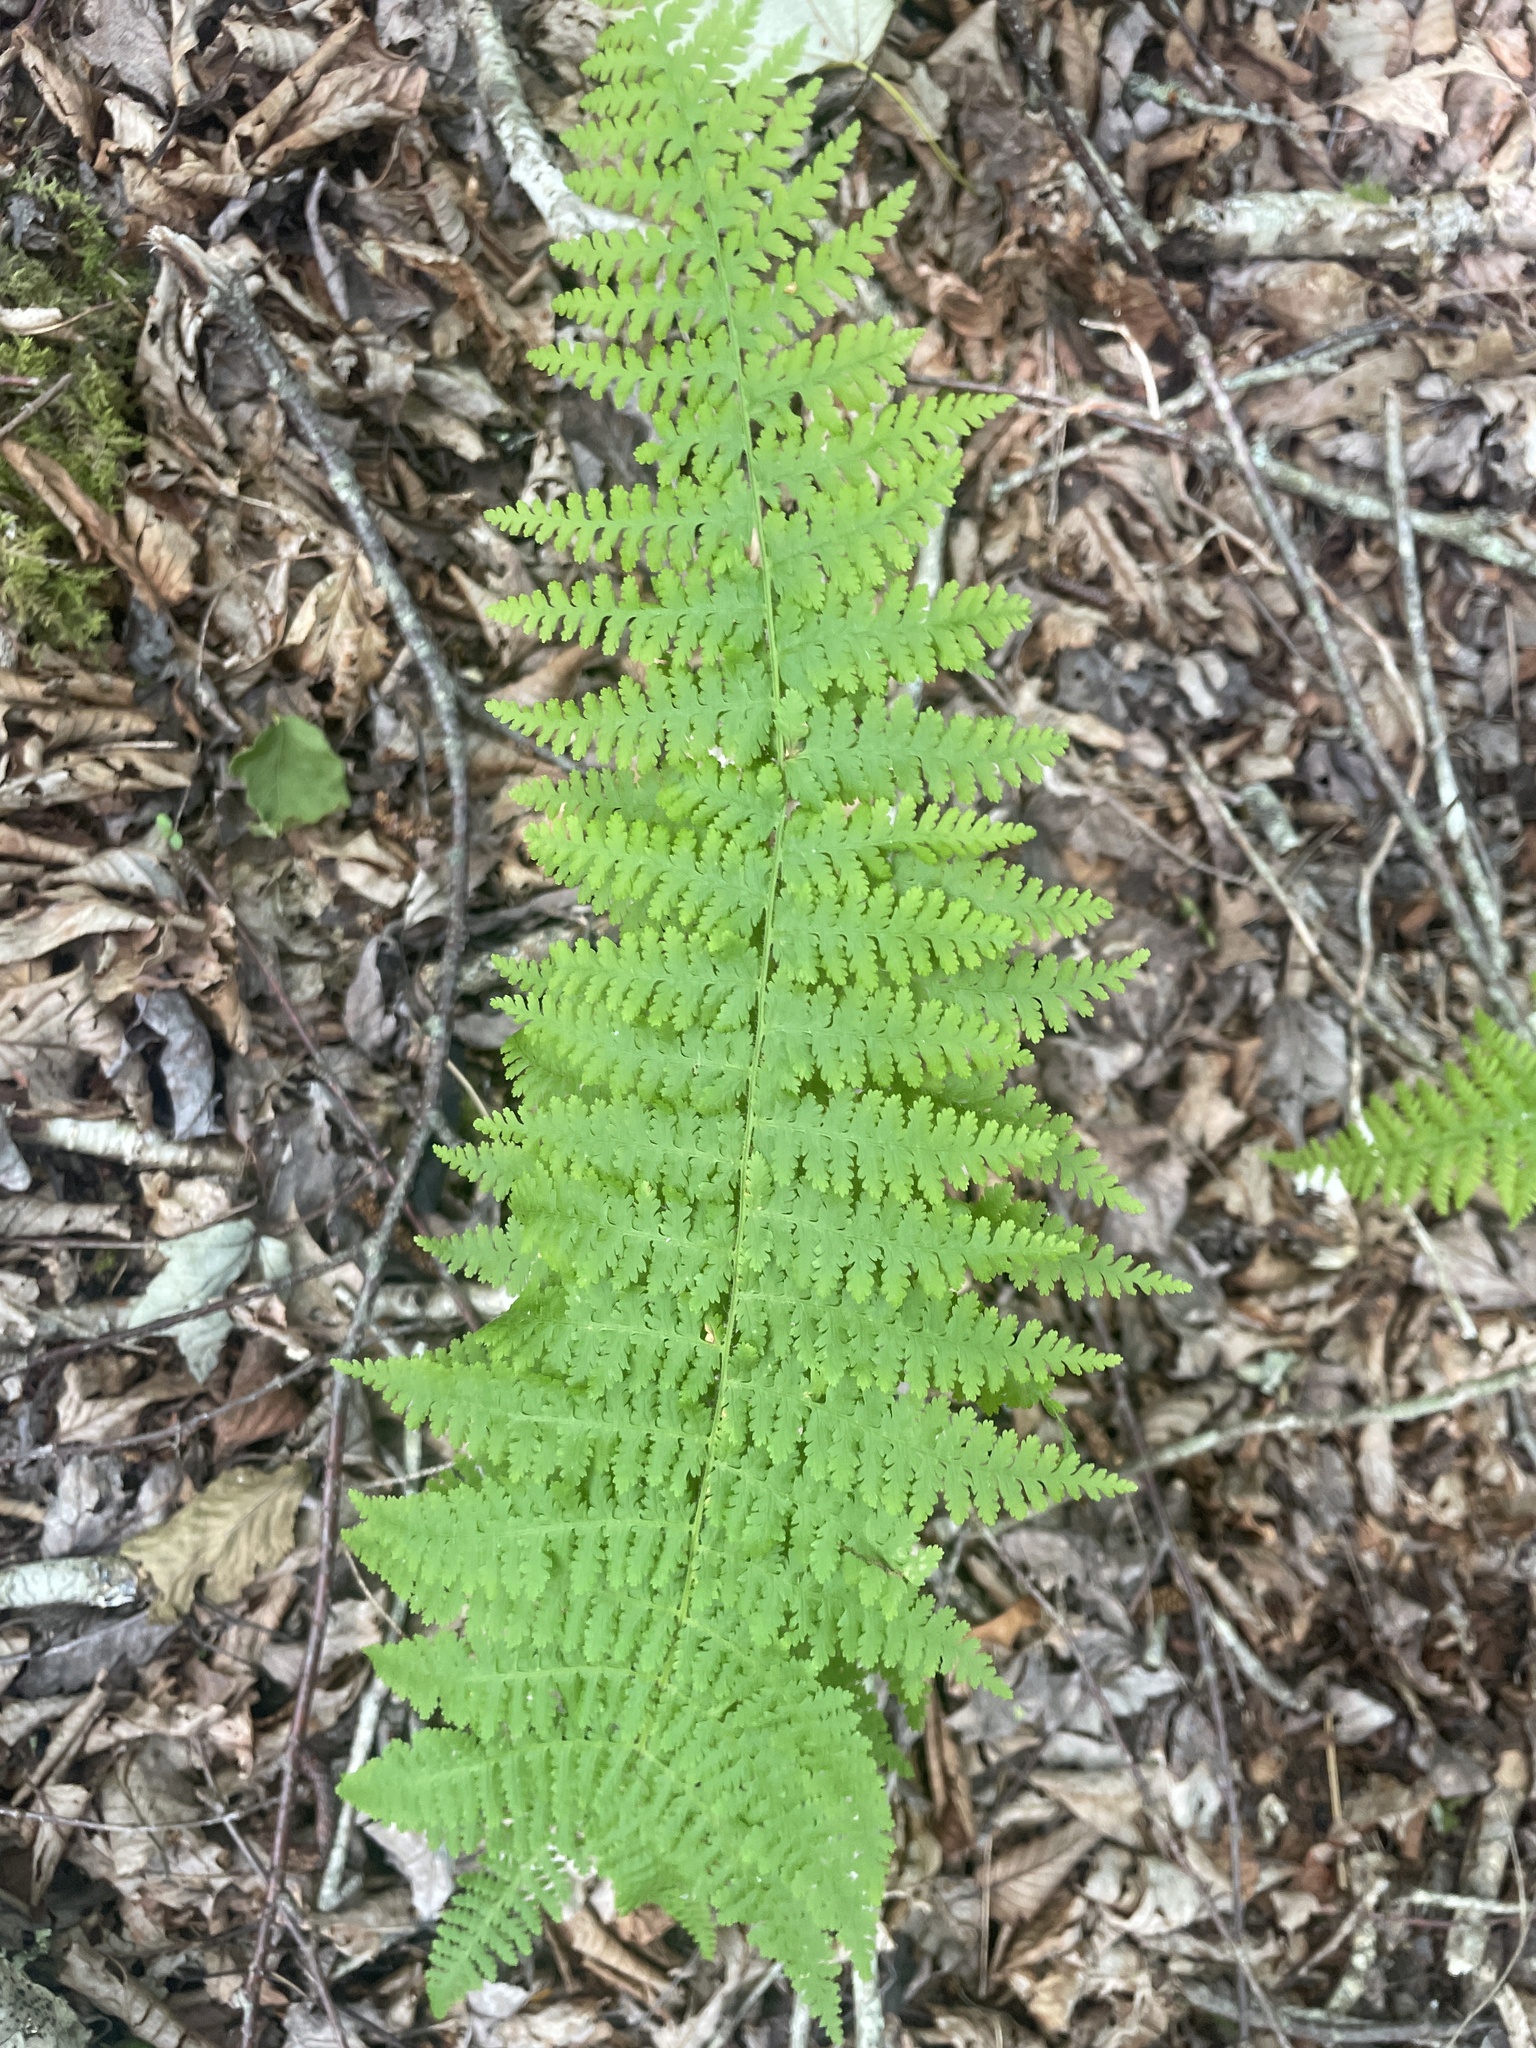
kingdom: Plantae
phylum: Tracheophyta
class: Polypodiopsida
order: Polypodiales
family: Dennstaedtiaceae
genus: Sitobolium
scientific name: Sitobolium punctilobum
